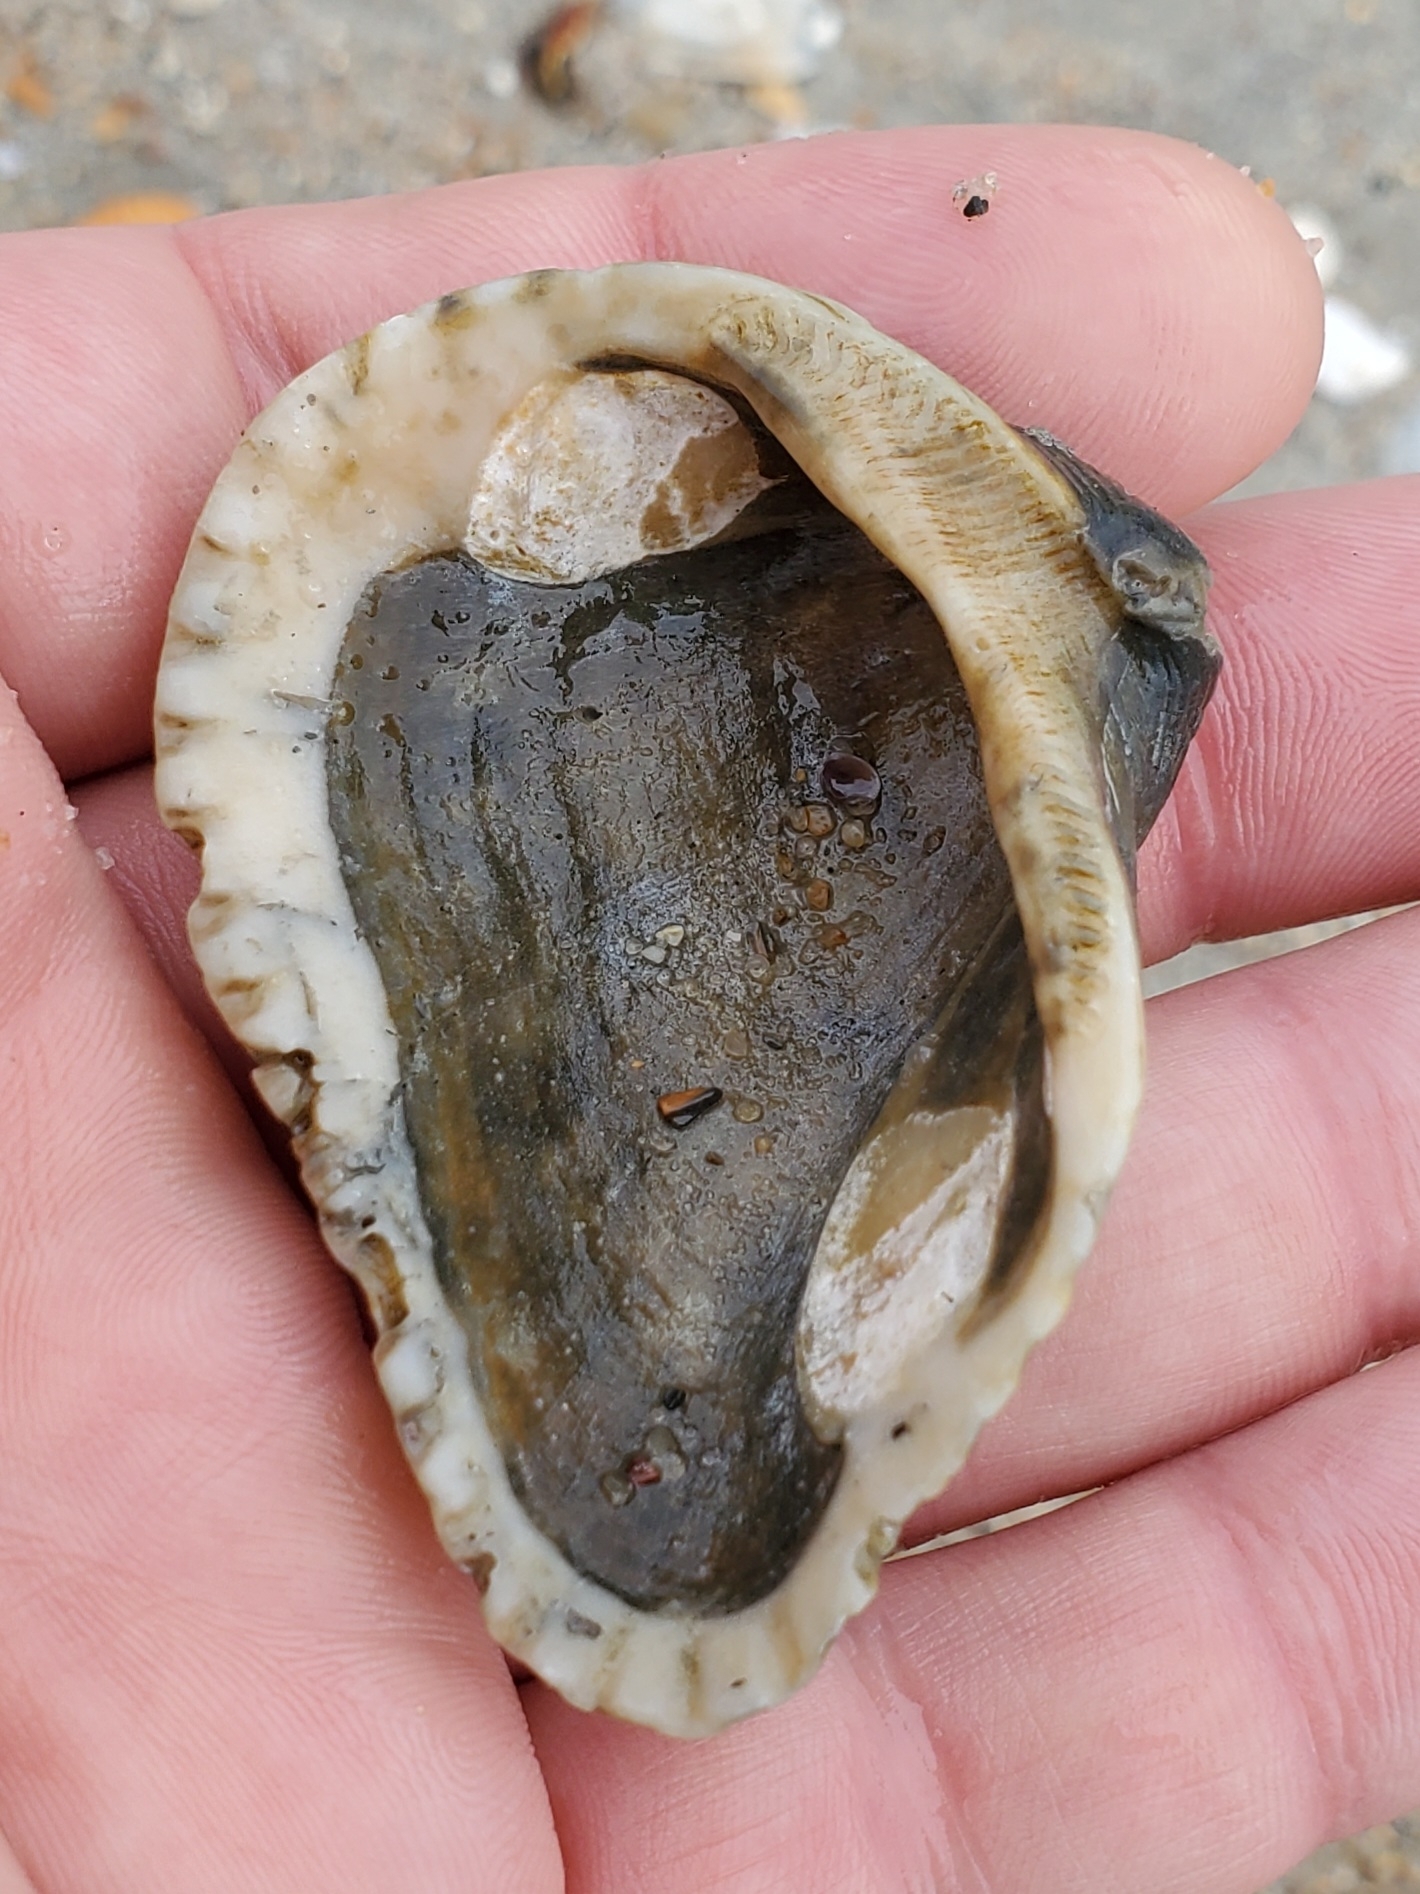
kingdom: Animalia
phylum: Mollusca
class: Bivalvia
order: Arcida
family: Noetiidae
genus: Noetia
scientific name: Noetia ponderosa
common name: Ponderous ark
